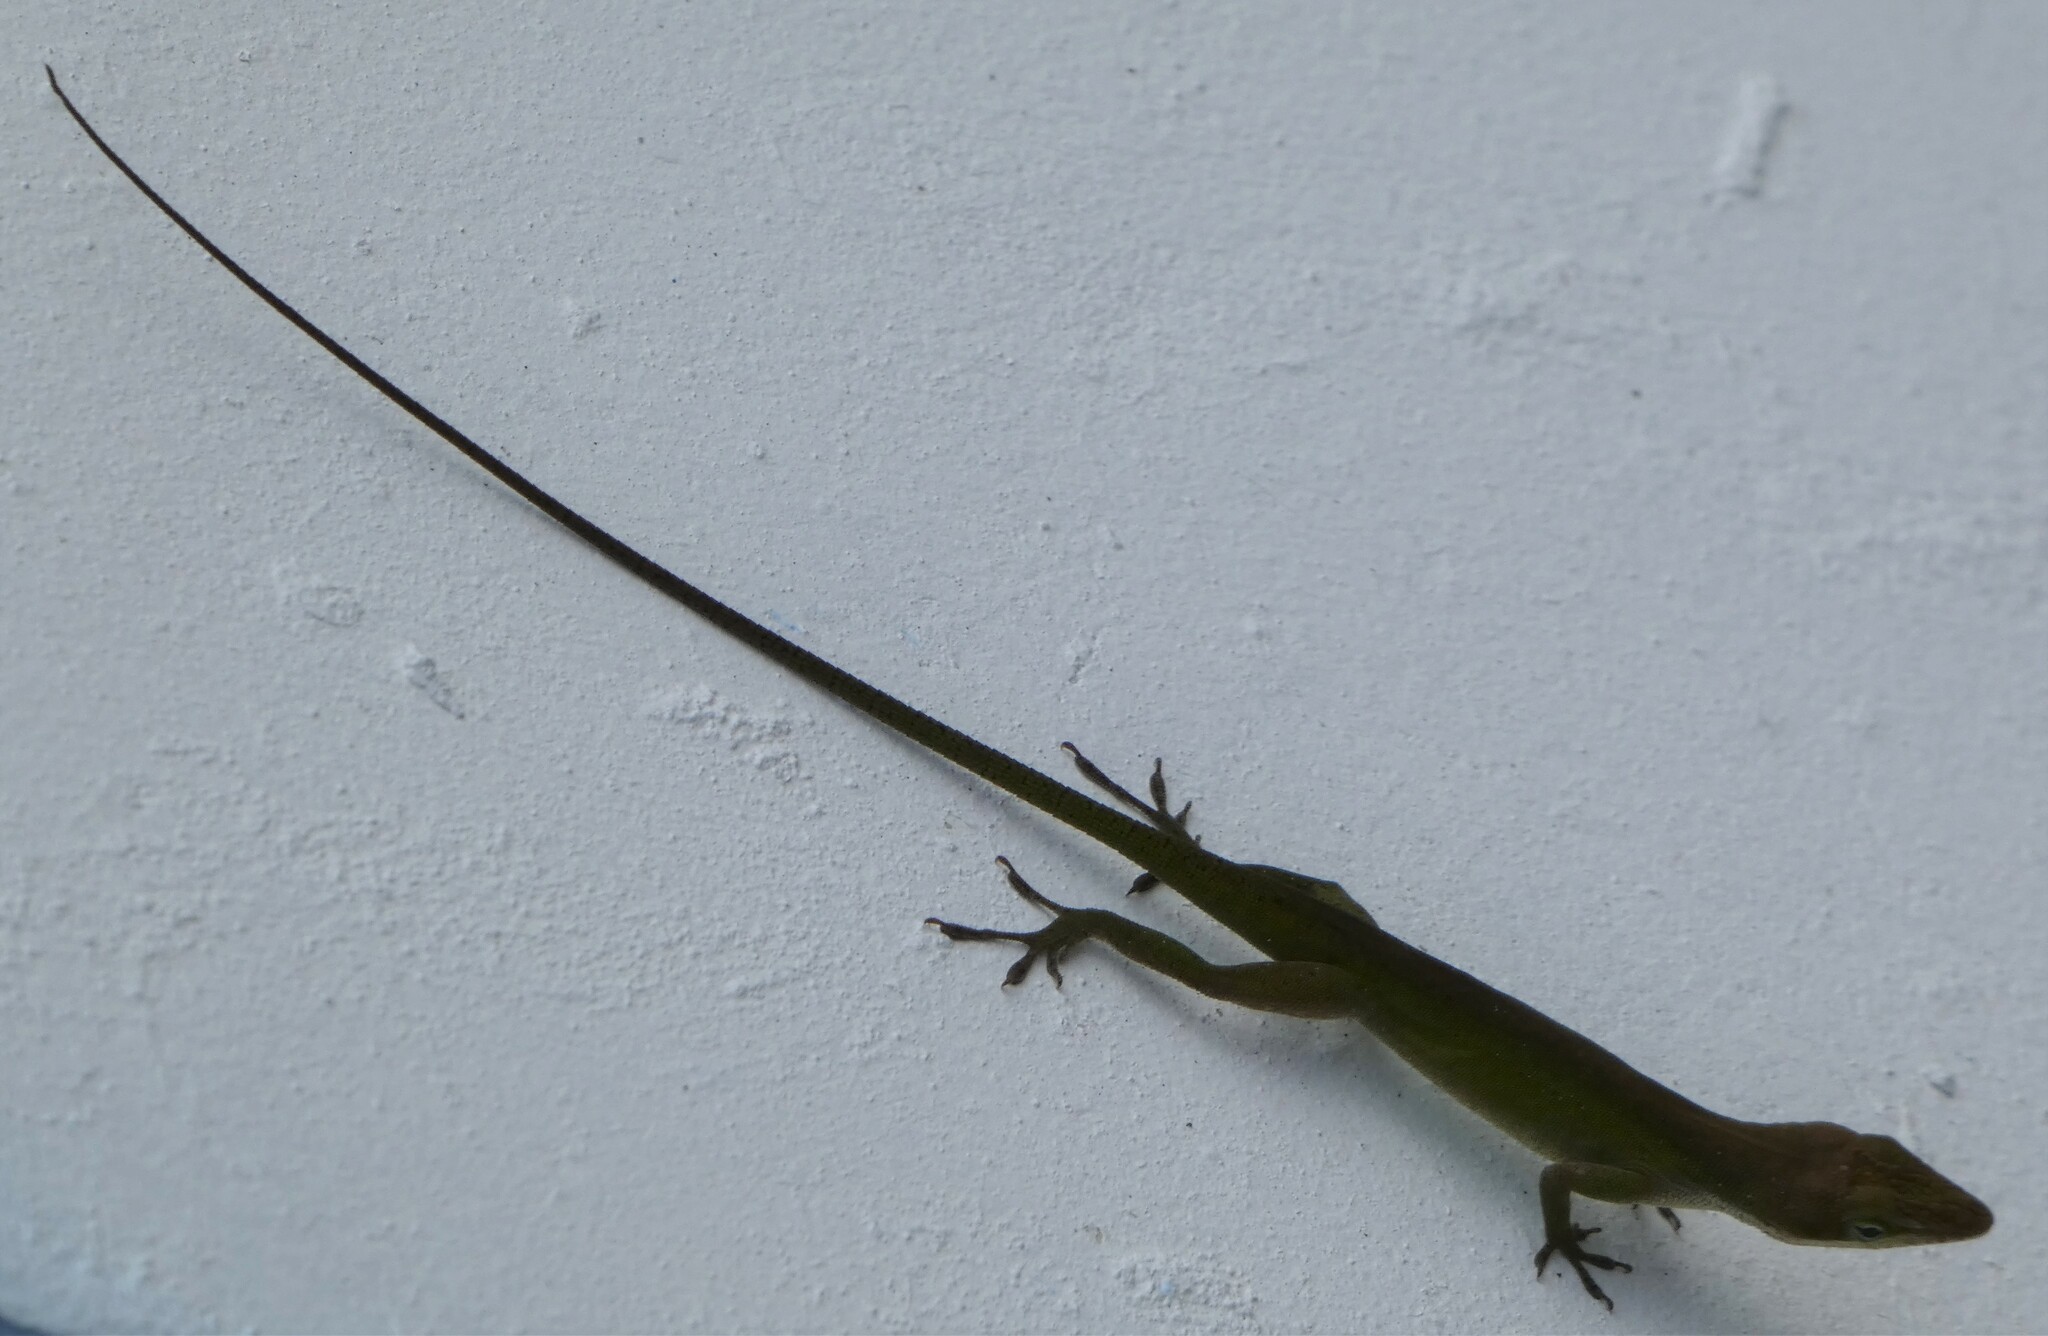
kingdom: Animalia
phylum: Chordata
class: Squamata
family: Dactyloidae
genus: Anolis
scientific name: Anolis carolinensis
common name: Green anole
